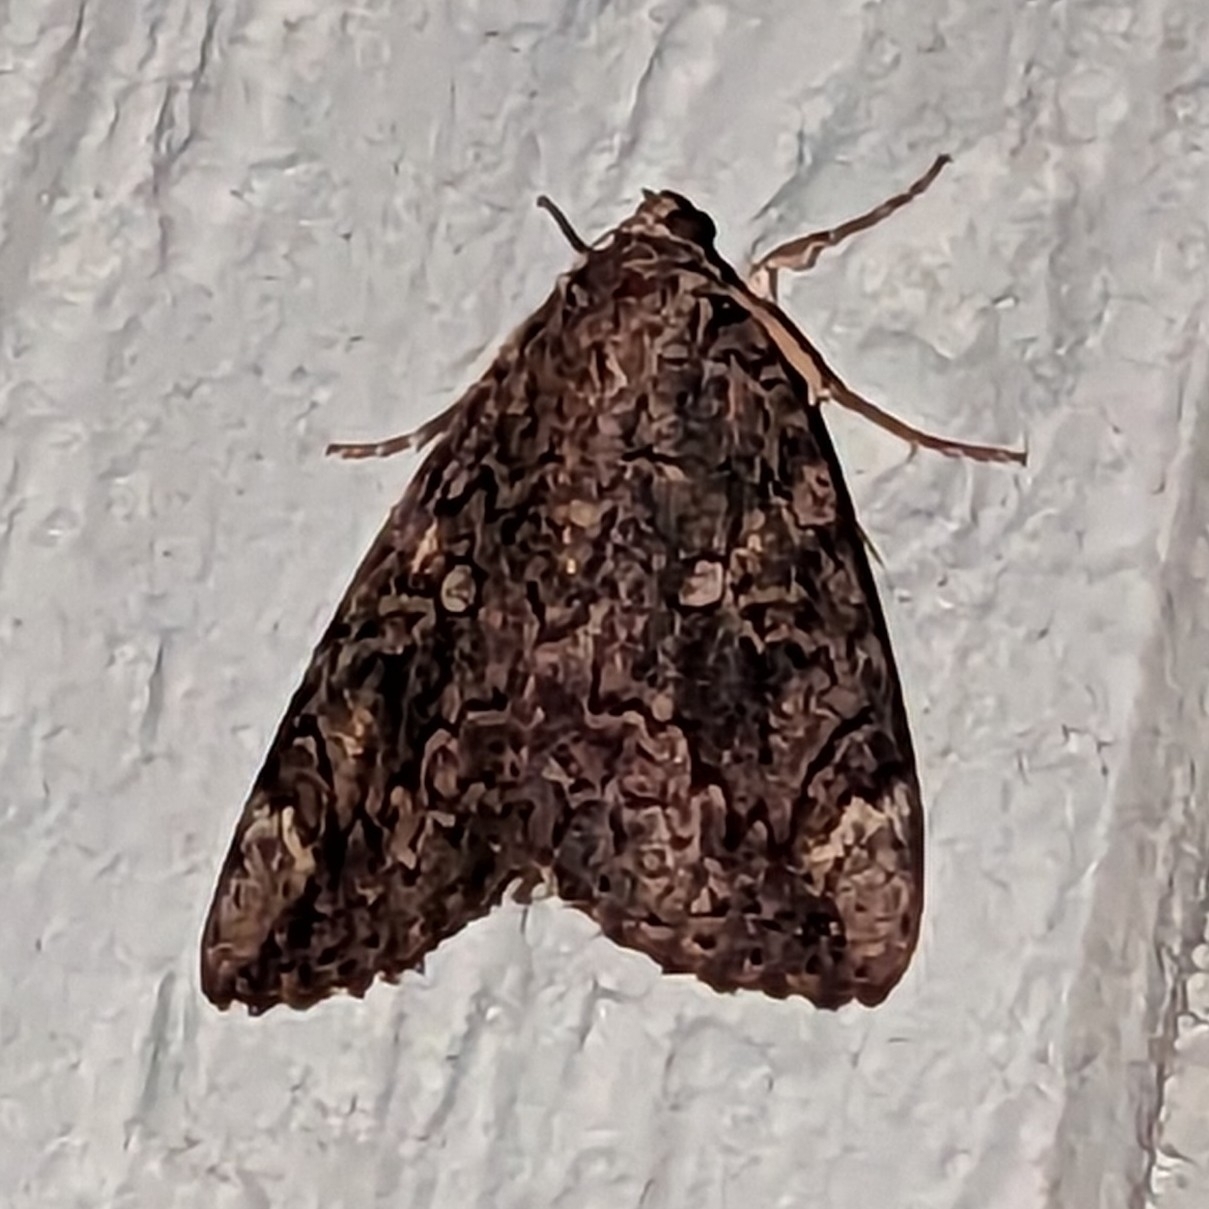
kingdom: Animalia
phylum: Arthropoda
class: Insecta
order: Lepidoptera
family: Erebidae
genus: Catocala
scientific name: Catocala innubens
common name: Betrothed underwing
